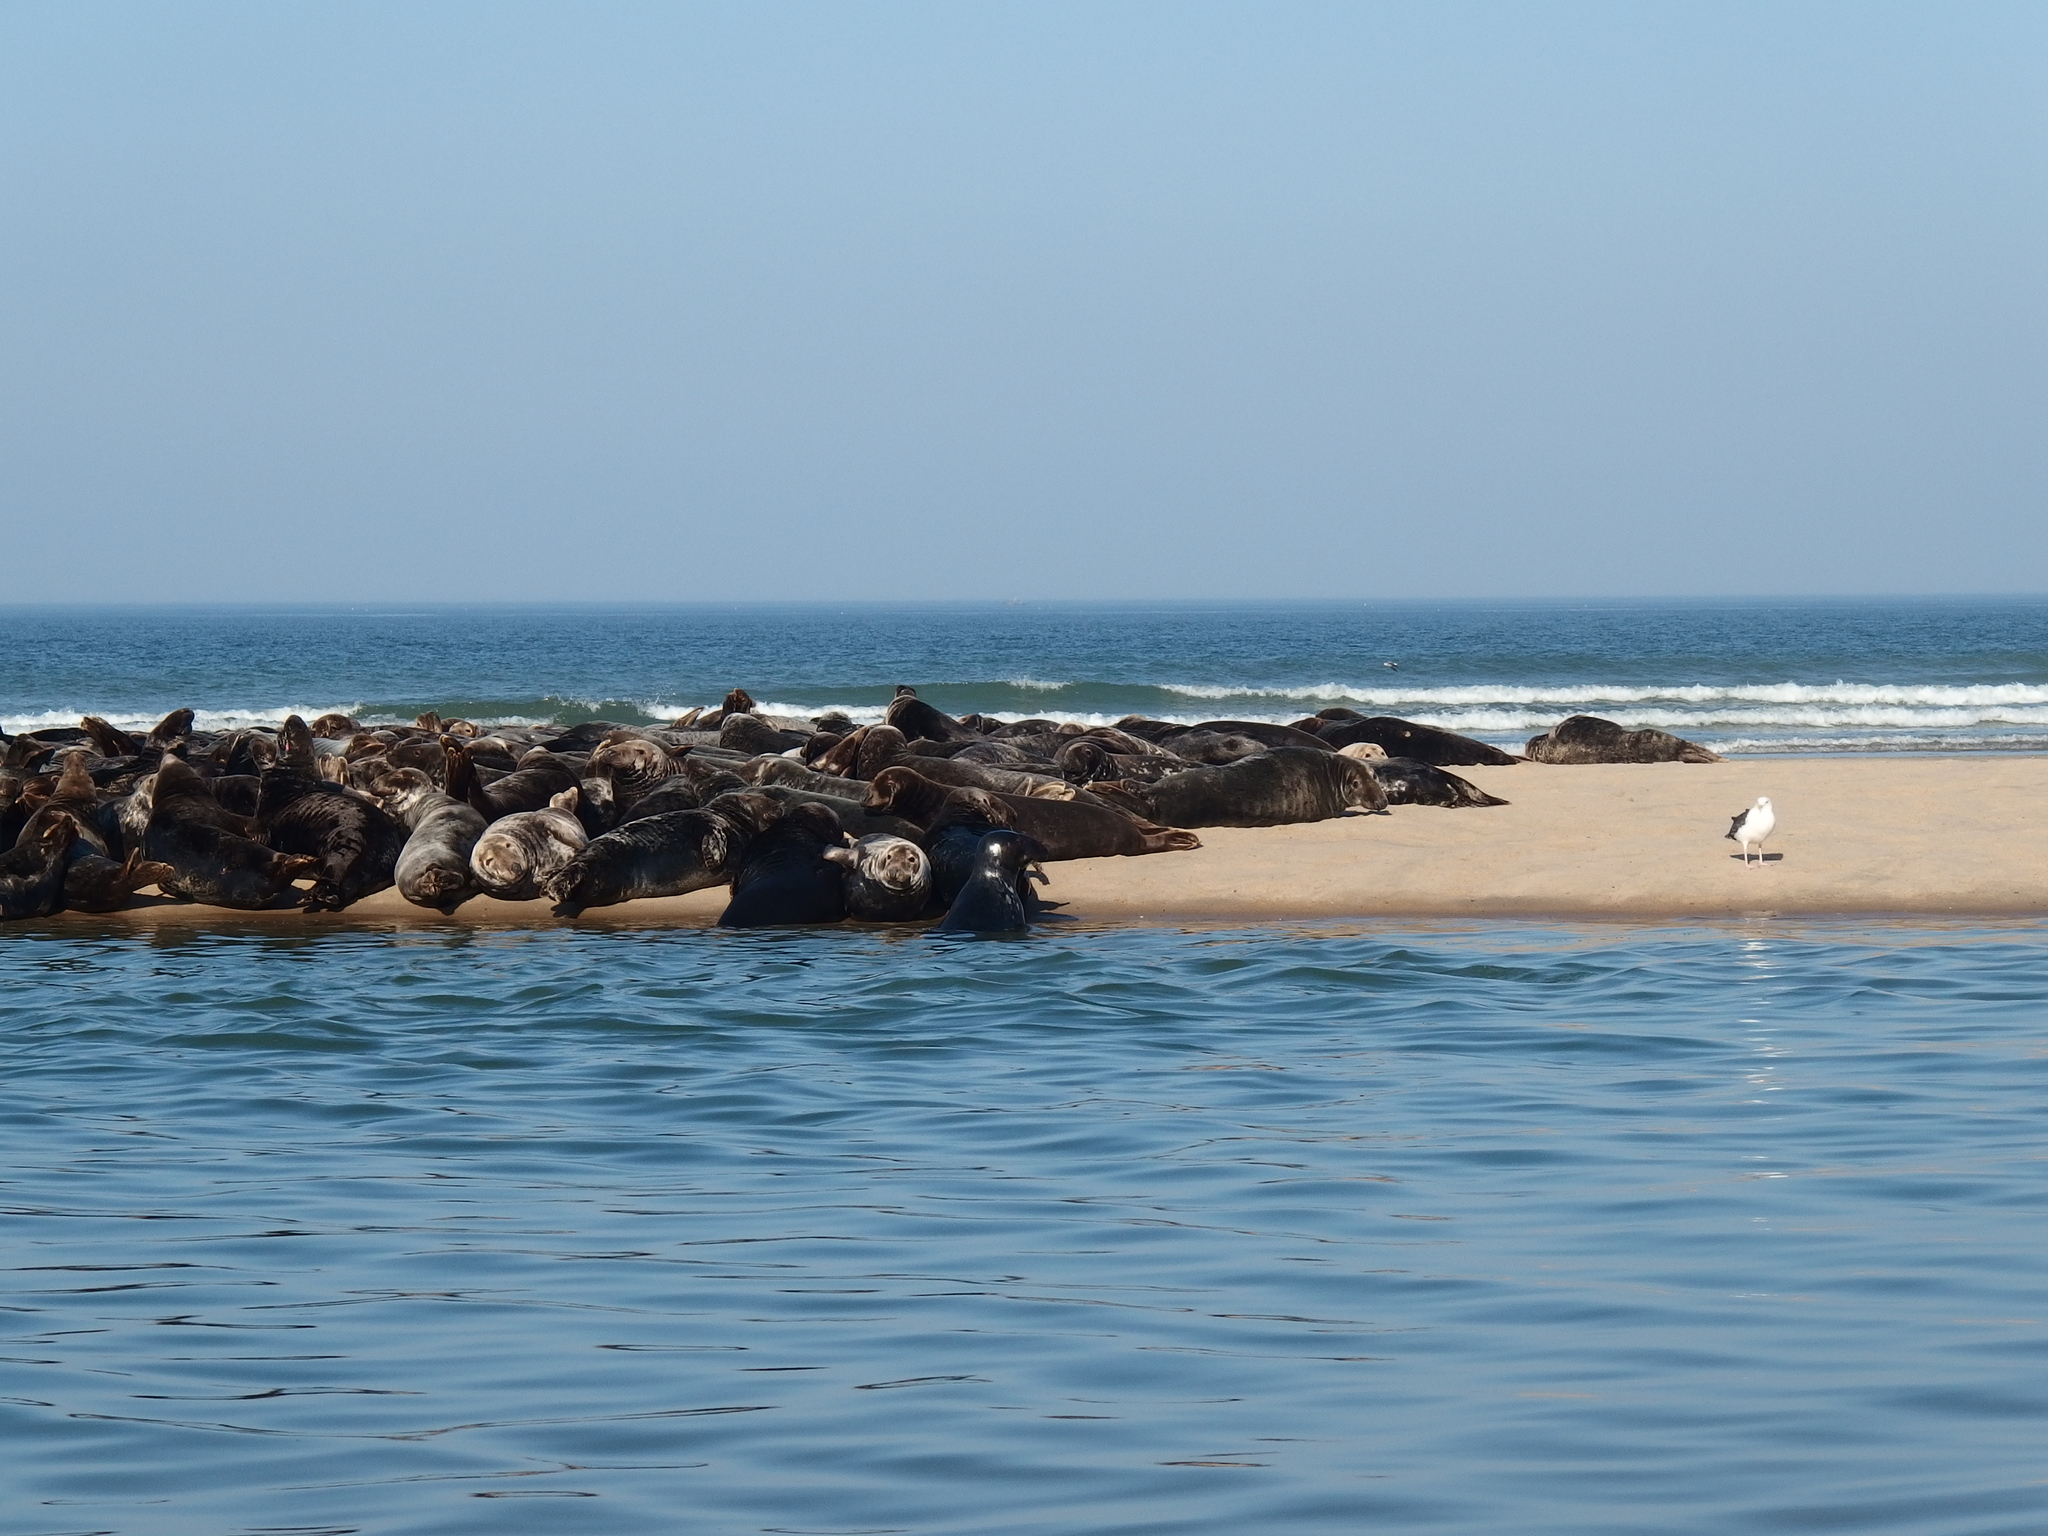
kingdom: Animalia
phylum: Chordata
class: Mammalia
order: Carnivora
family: Phocidae
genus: Halichoerus
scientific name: Halichoerus grypus
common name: Grey seal
